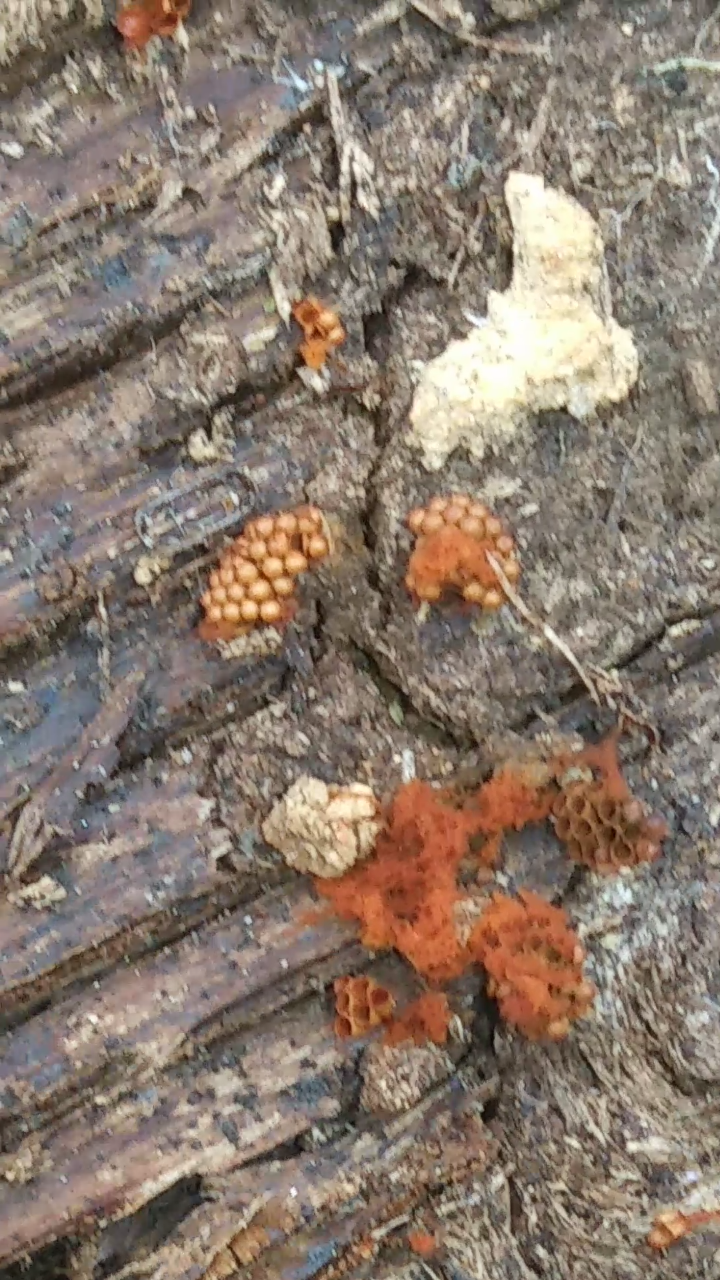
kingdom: Protozoa
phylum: Mycetozoa
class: Myxomycetes
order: Trichiales
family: Trichiaceae
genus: Metatrichia
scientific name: Metatrichia vesparia
